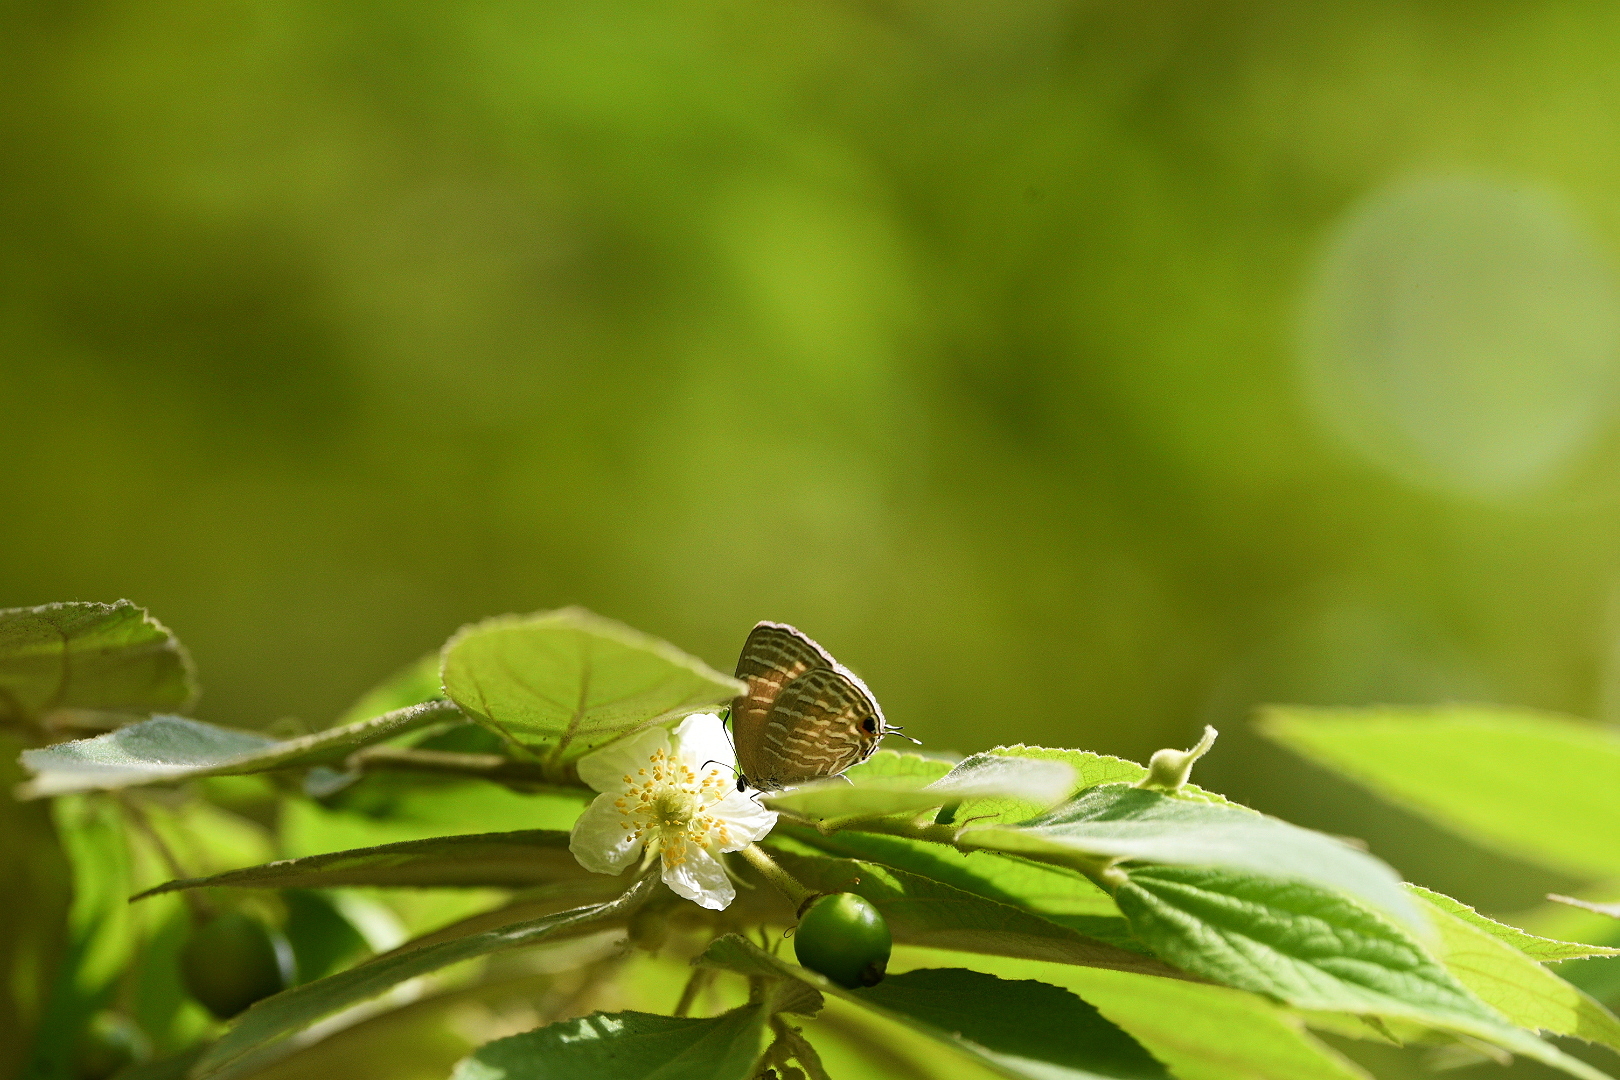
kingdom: Animalia
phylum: Arthropoda
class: Insecta
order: Lepidoptera
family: Lycaenidae
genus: Jamides
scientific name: Jamides celeno
